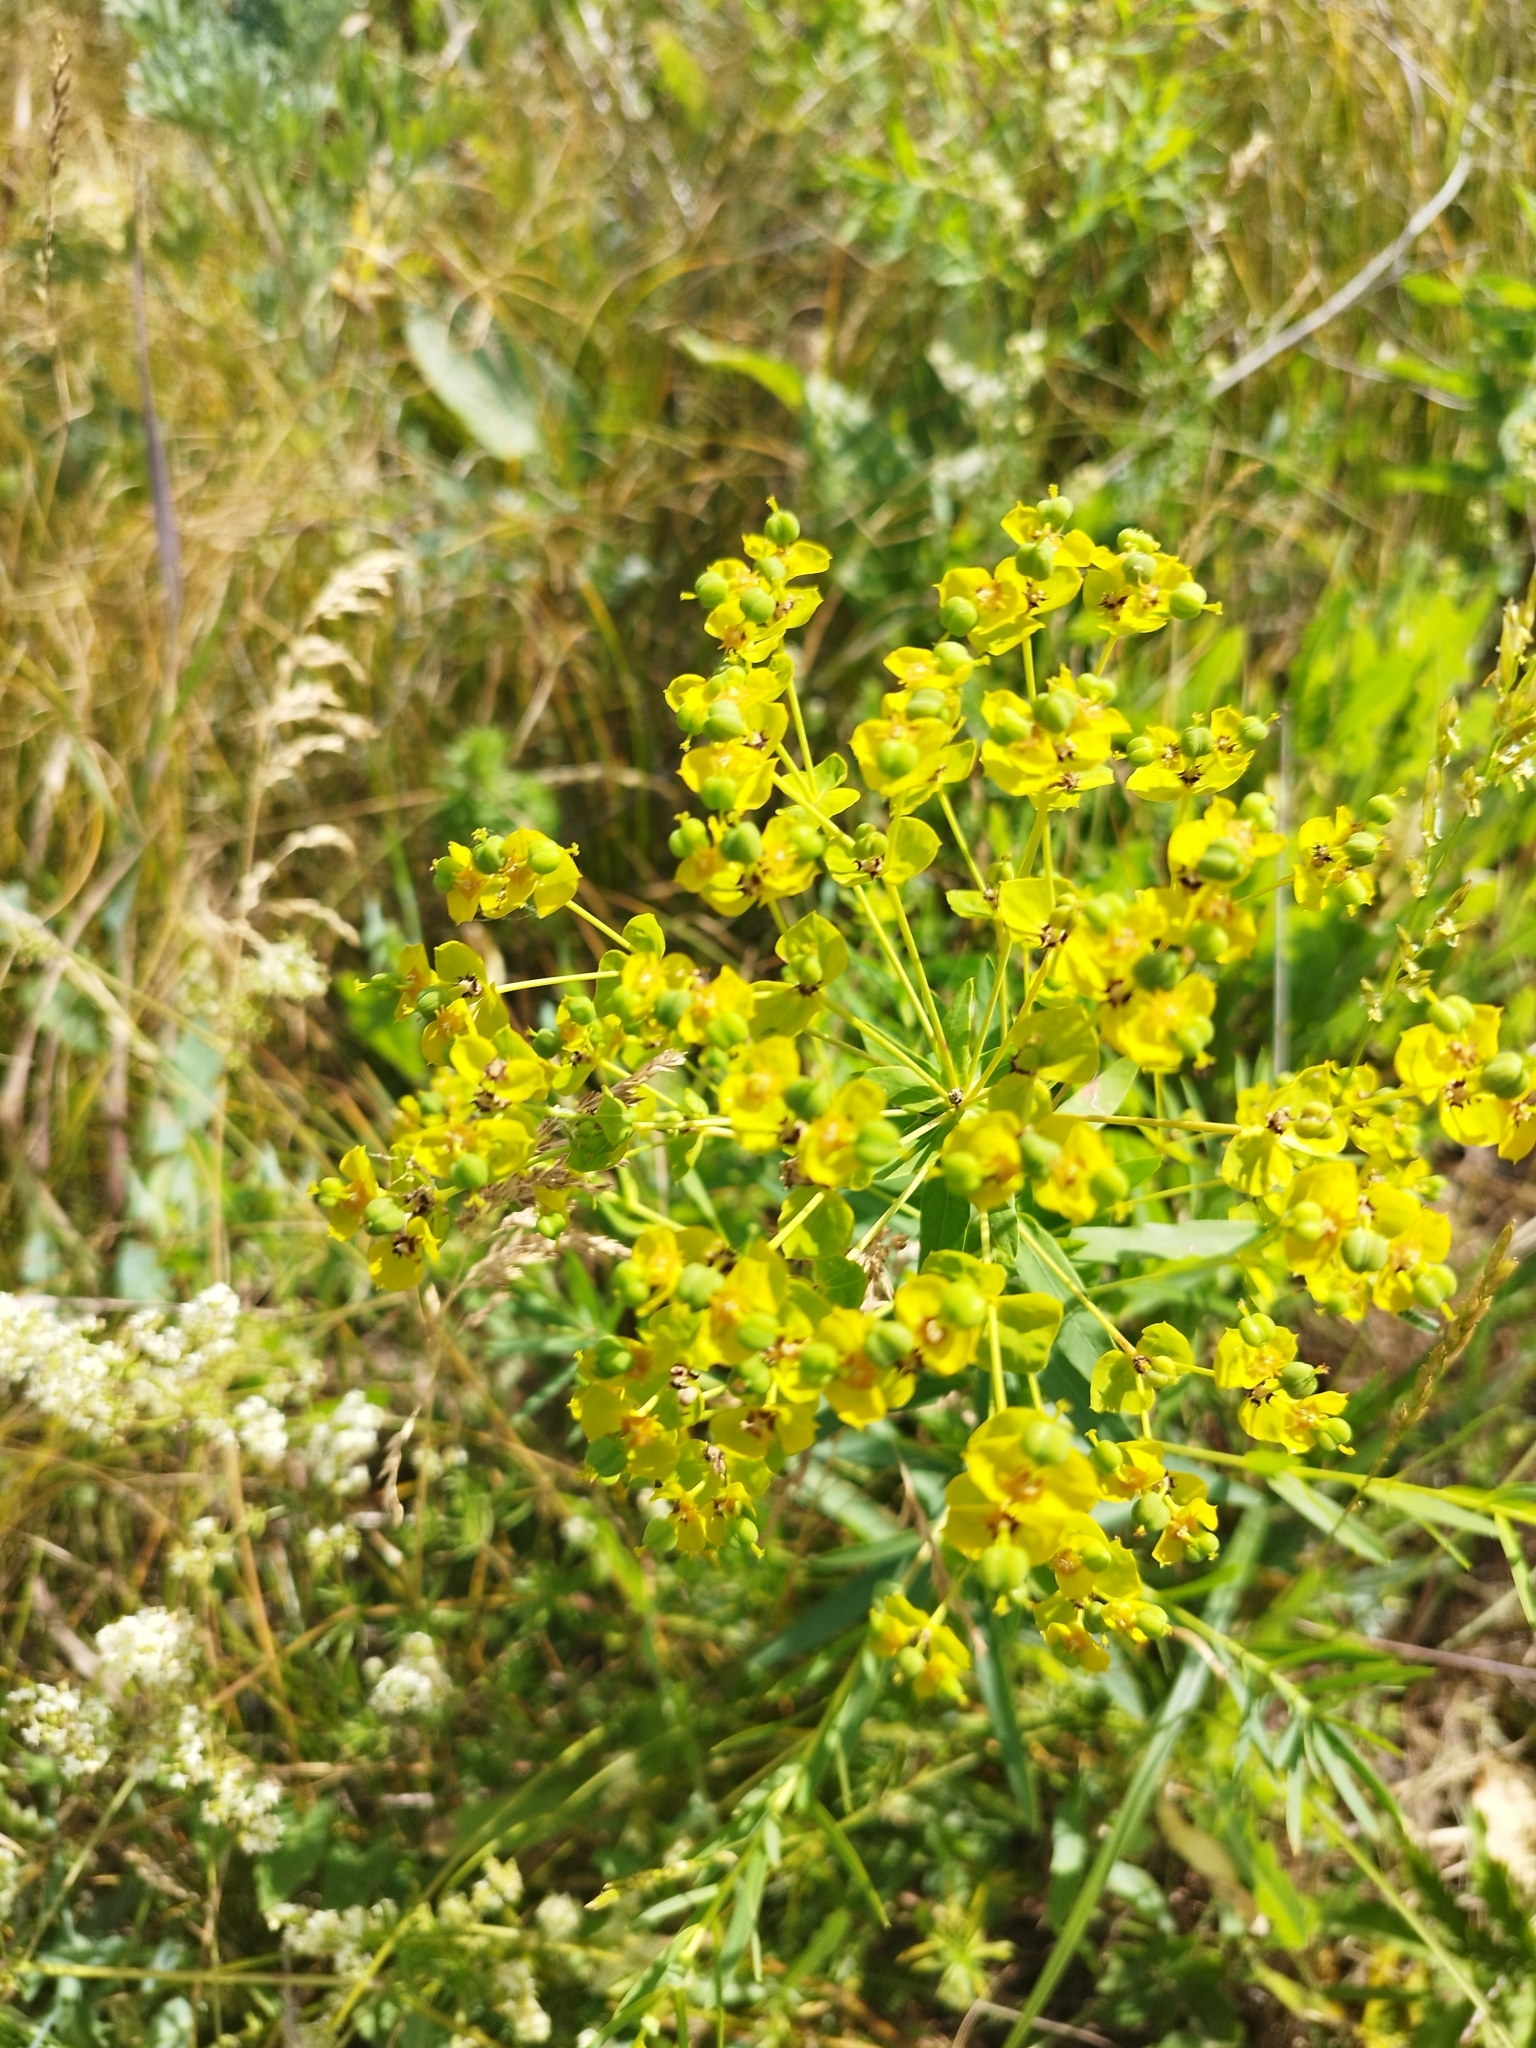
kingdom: Plantae
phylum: Tracheophyta
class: Magnoliopsida
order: Malpighiales
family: Euphorbiaceae
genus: Euphorbia
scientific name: Euphorbia virgata
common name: Leafy spurge
